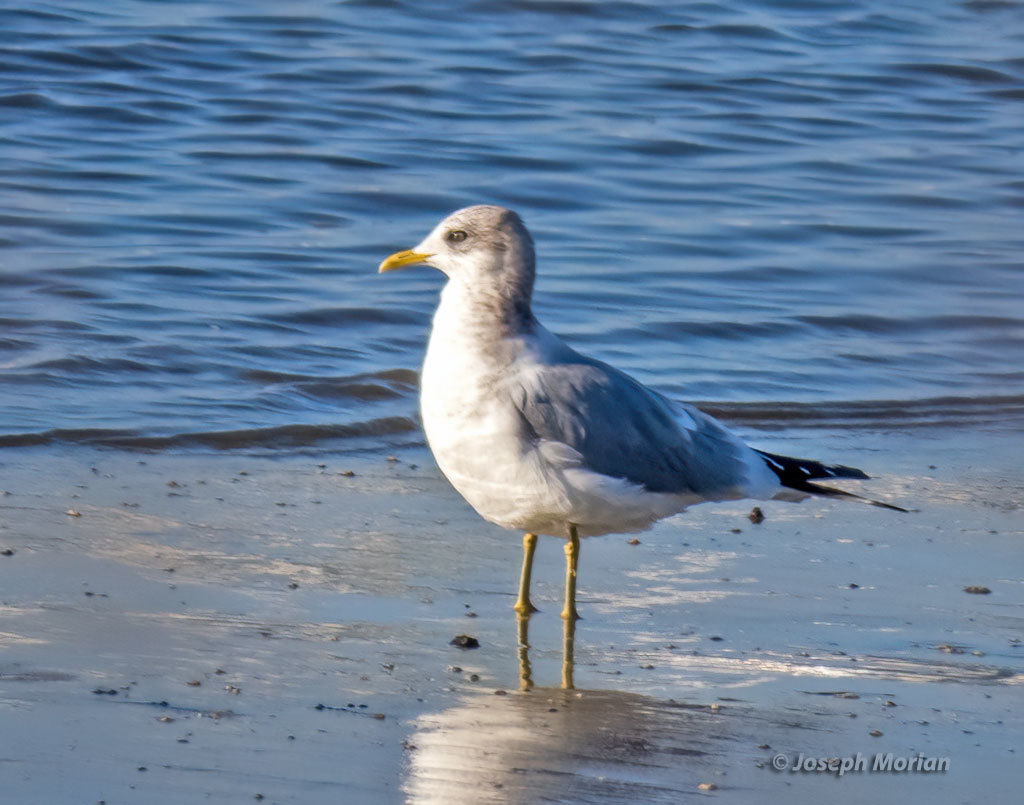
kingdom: Animalia
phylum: Chordata
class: Aves
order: Charadriiformes
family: Laridae
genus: Larus
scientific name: Larus brachyrhynchus
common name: Short-billed gull
